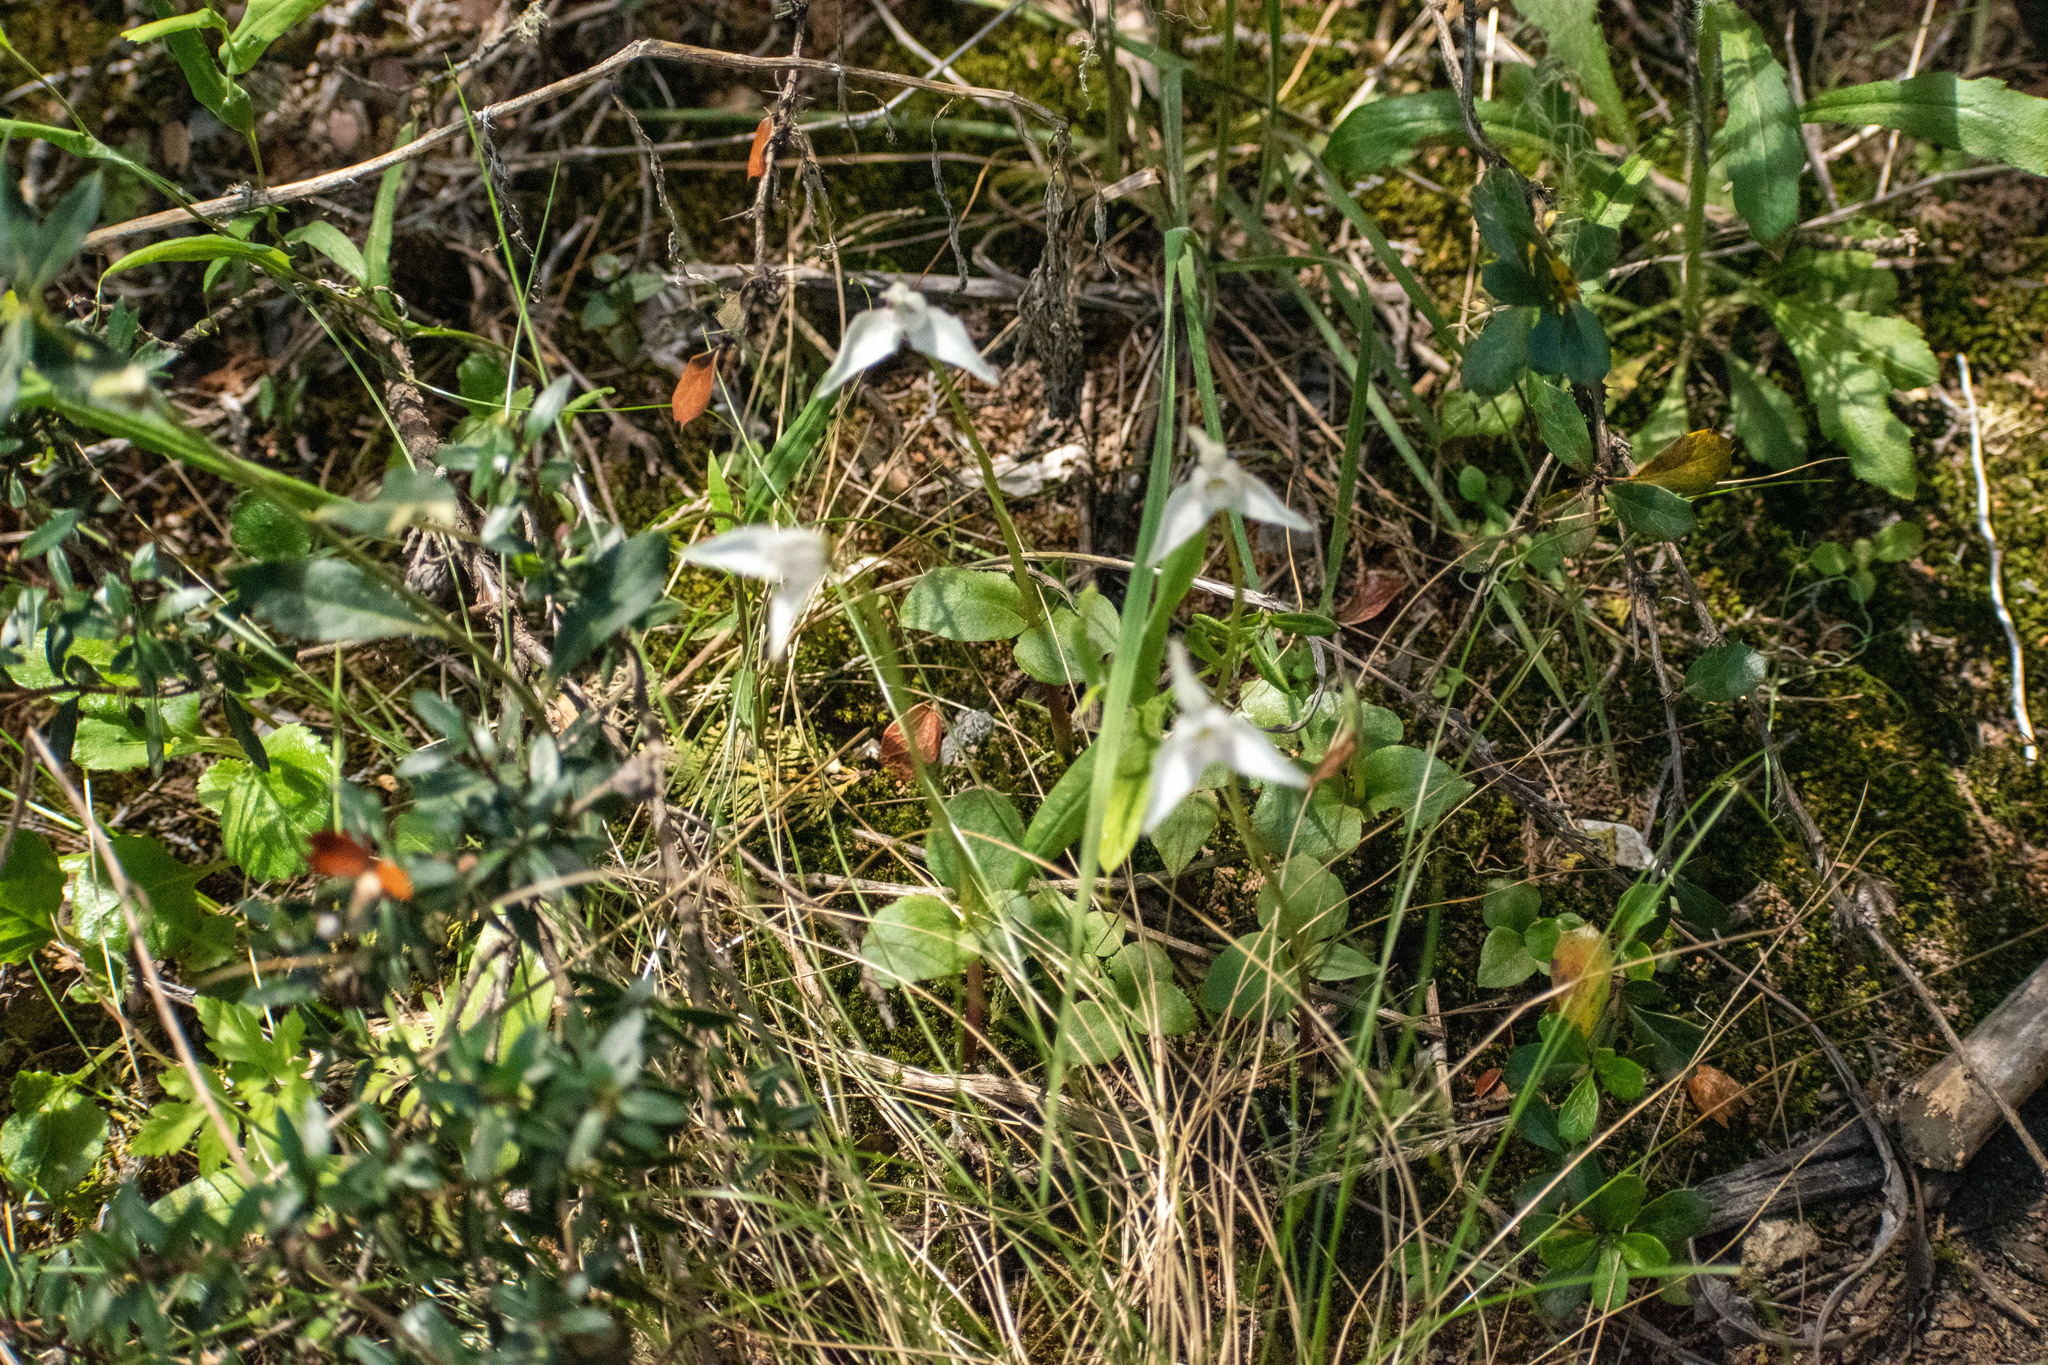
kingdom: Plantae
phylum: Tracheophyta
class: Liliopsida
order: Asparagales
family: Orchidaceae
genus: Codonorchis
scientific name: Codonorchis lessonii
